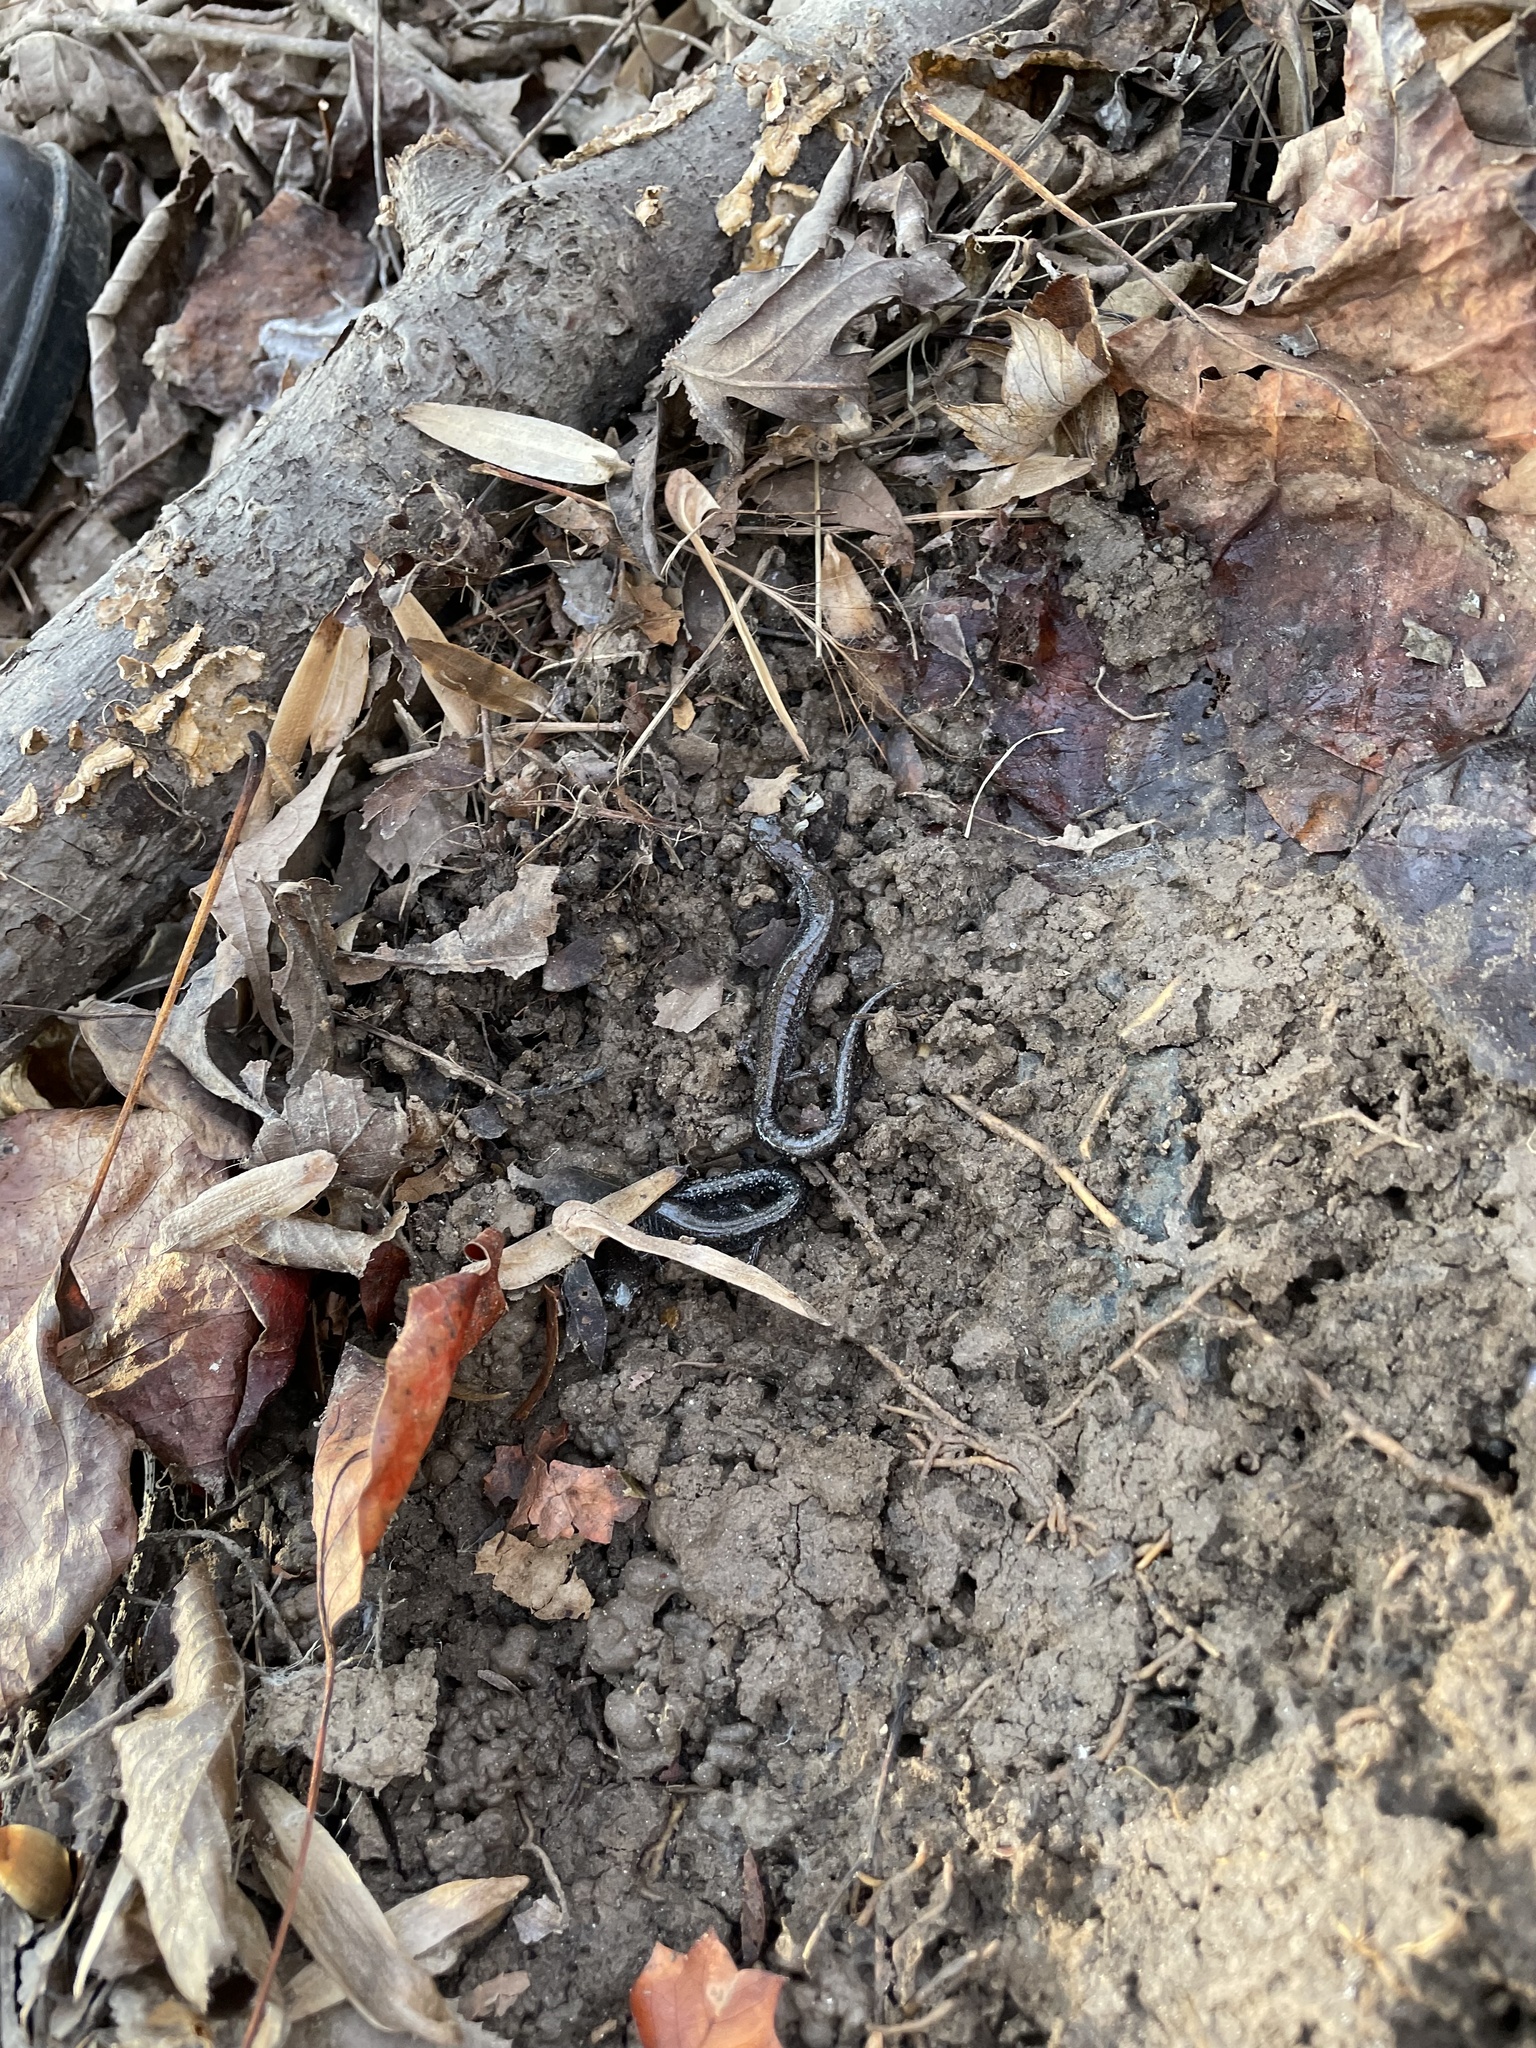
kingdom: Animalia
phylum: Chordata
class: Amphibia
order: Caudata
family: Plethodontidae
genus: Plethodon
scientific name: Plethodon cinereus
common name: Redback salamander
